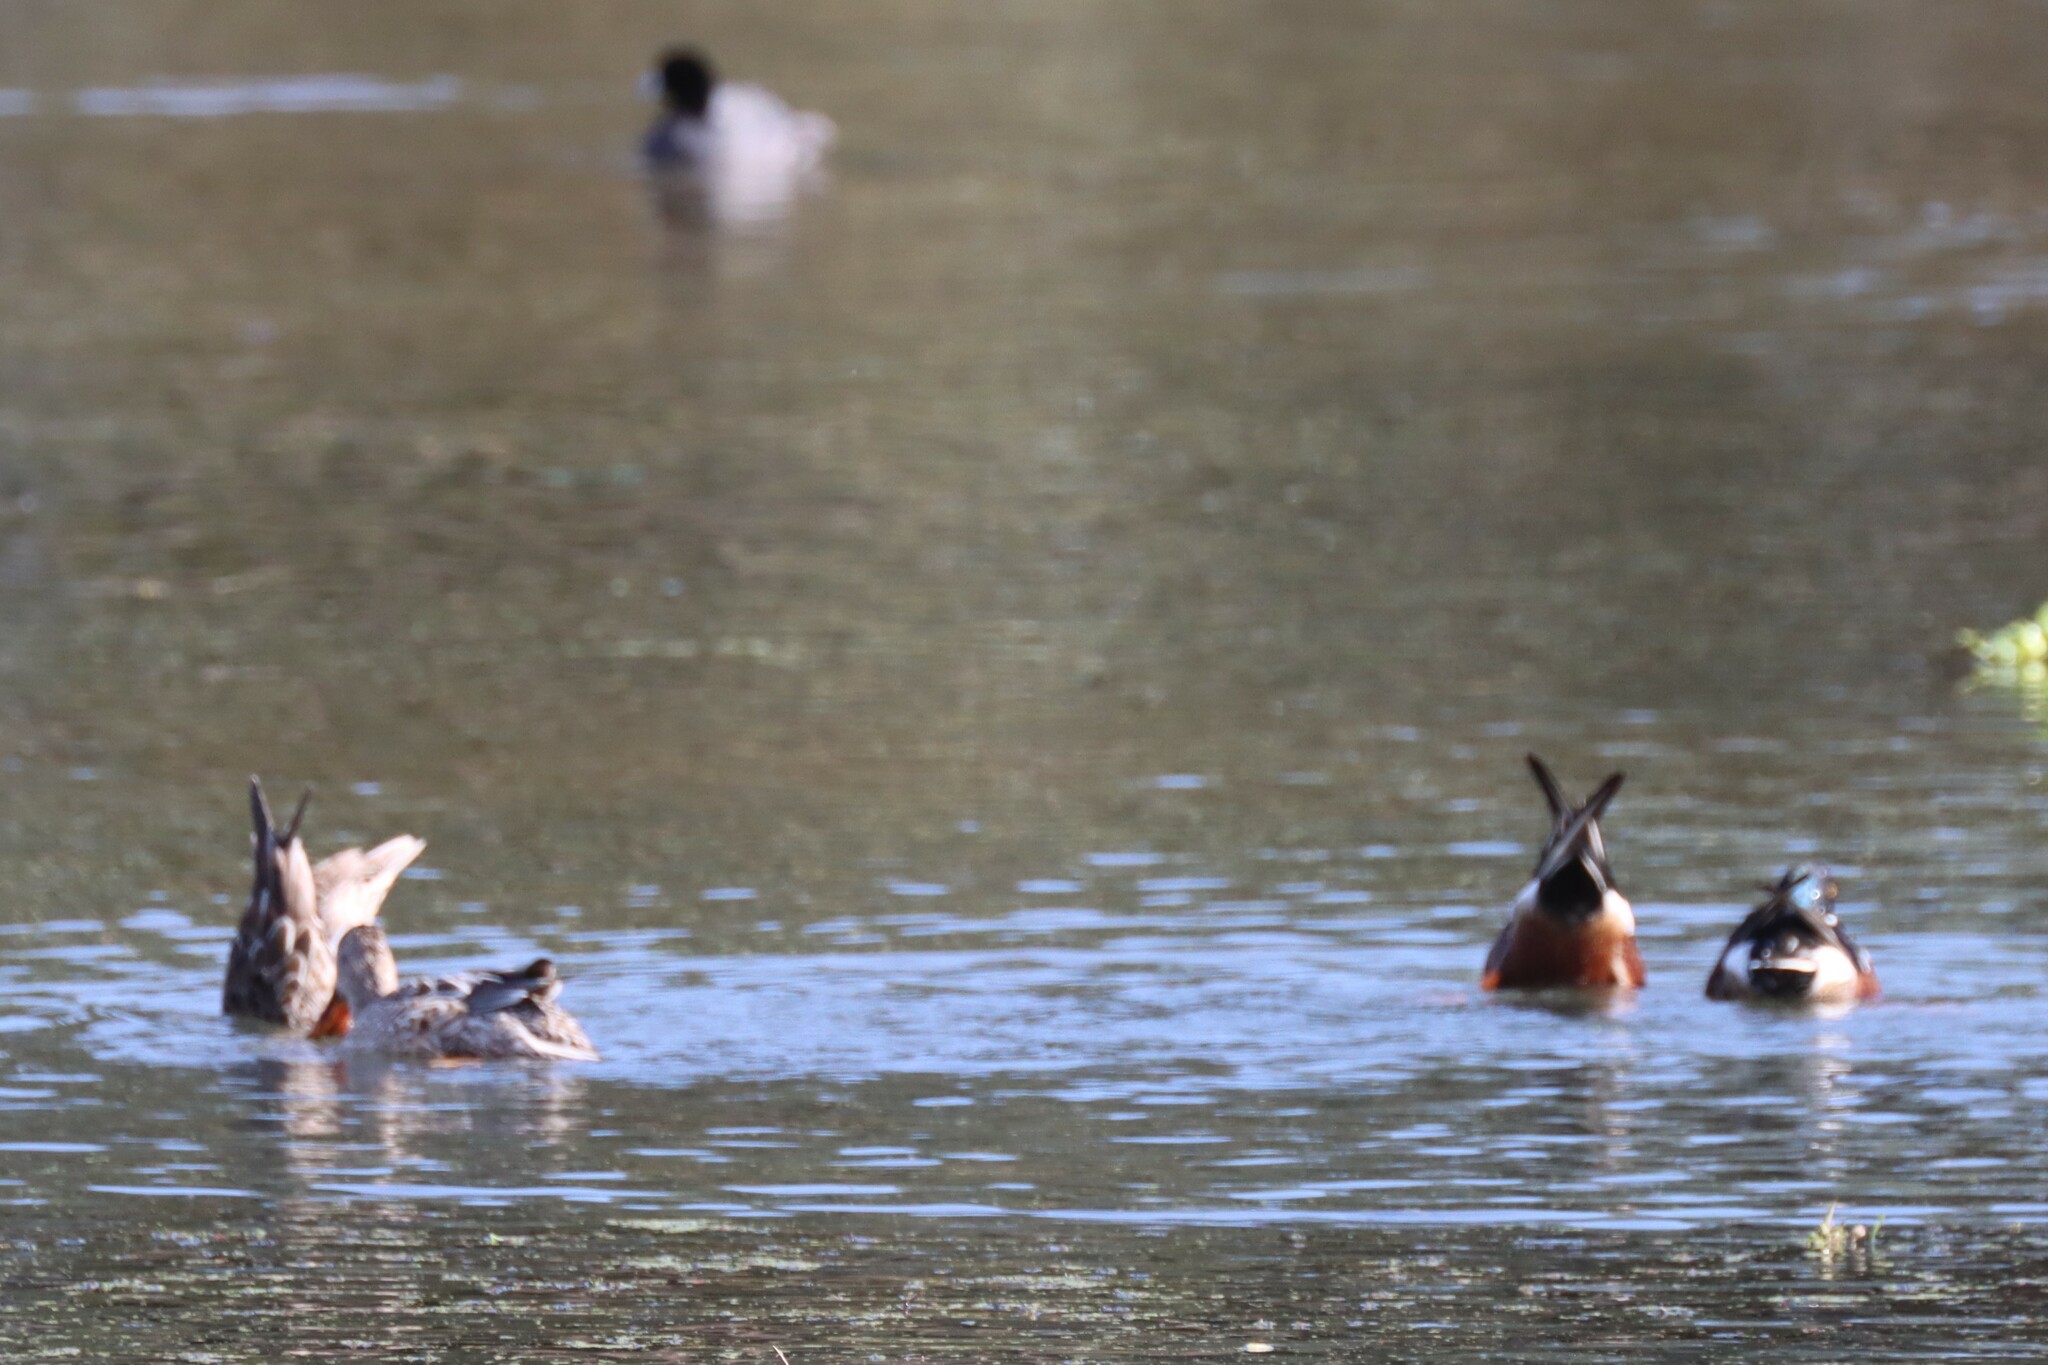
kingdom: Animalia
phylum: Chordata
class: Aves
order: Anseriformes
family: Anatidae
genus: Spatula
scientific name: Spatula clypeata
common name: Northern shoveler
